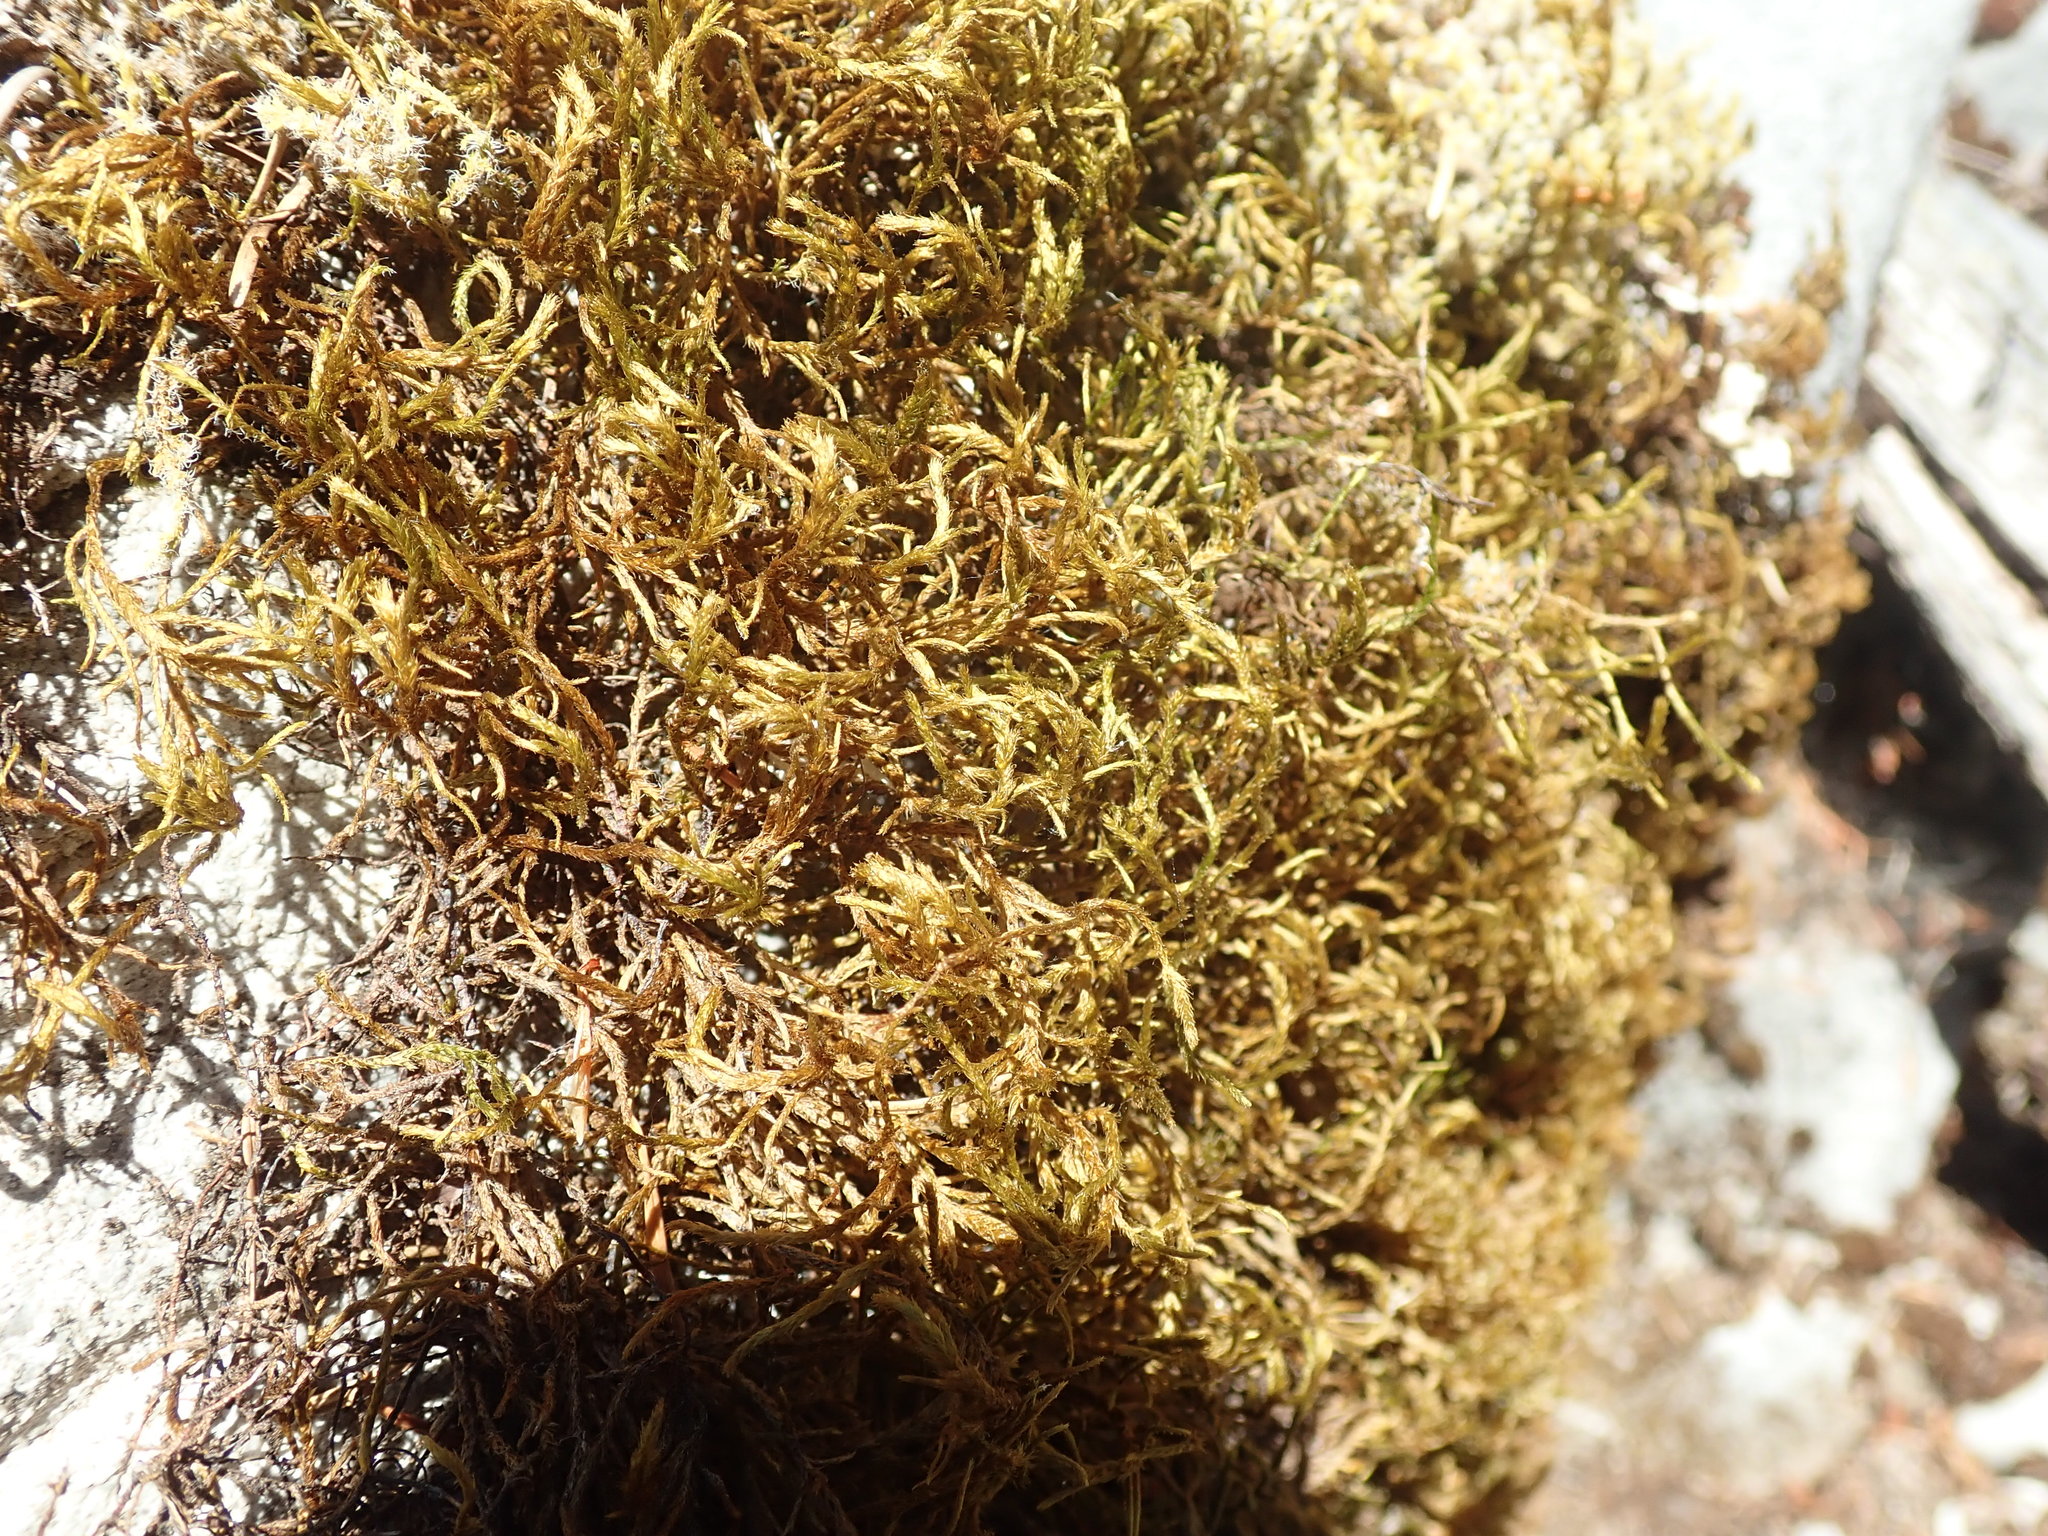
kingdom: Plantae
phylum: Bryophyta
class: Bryopsida
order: Hypnales
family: Antitrichiaceae
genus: Antitrichia
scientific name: Antitrichia californica
